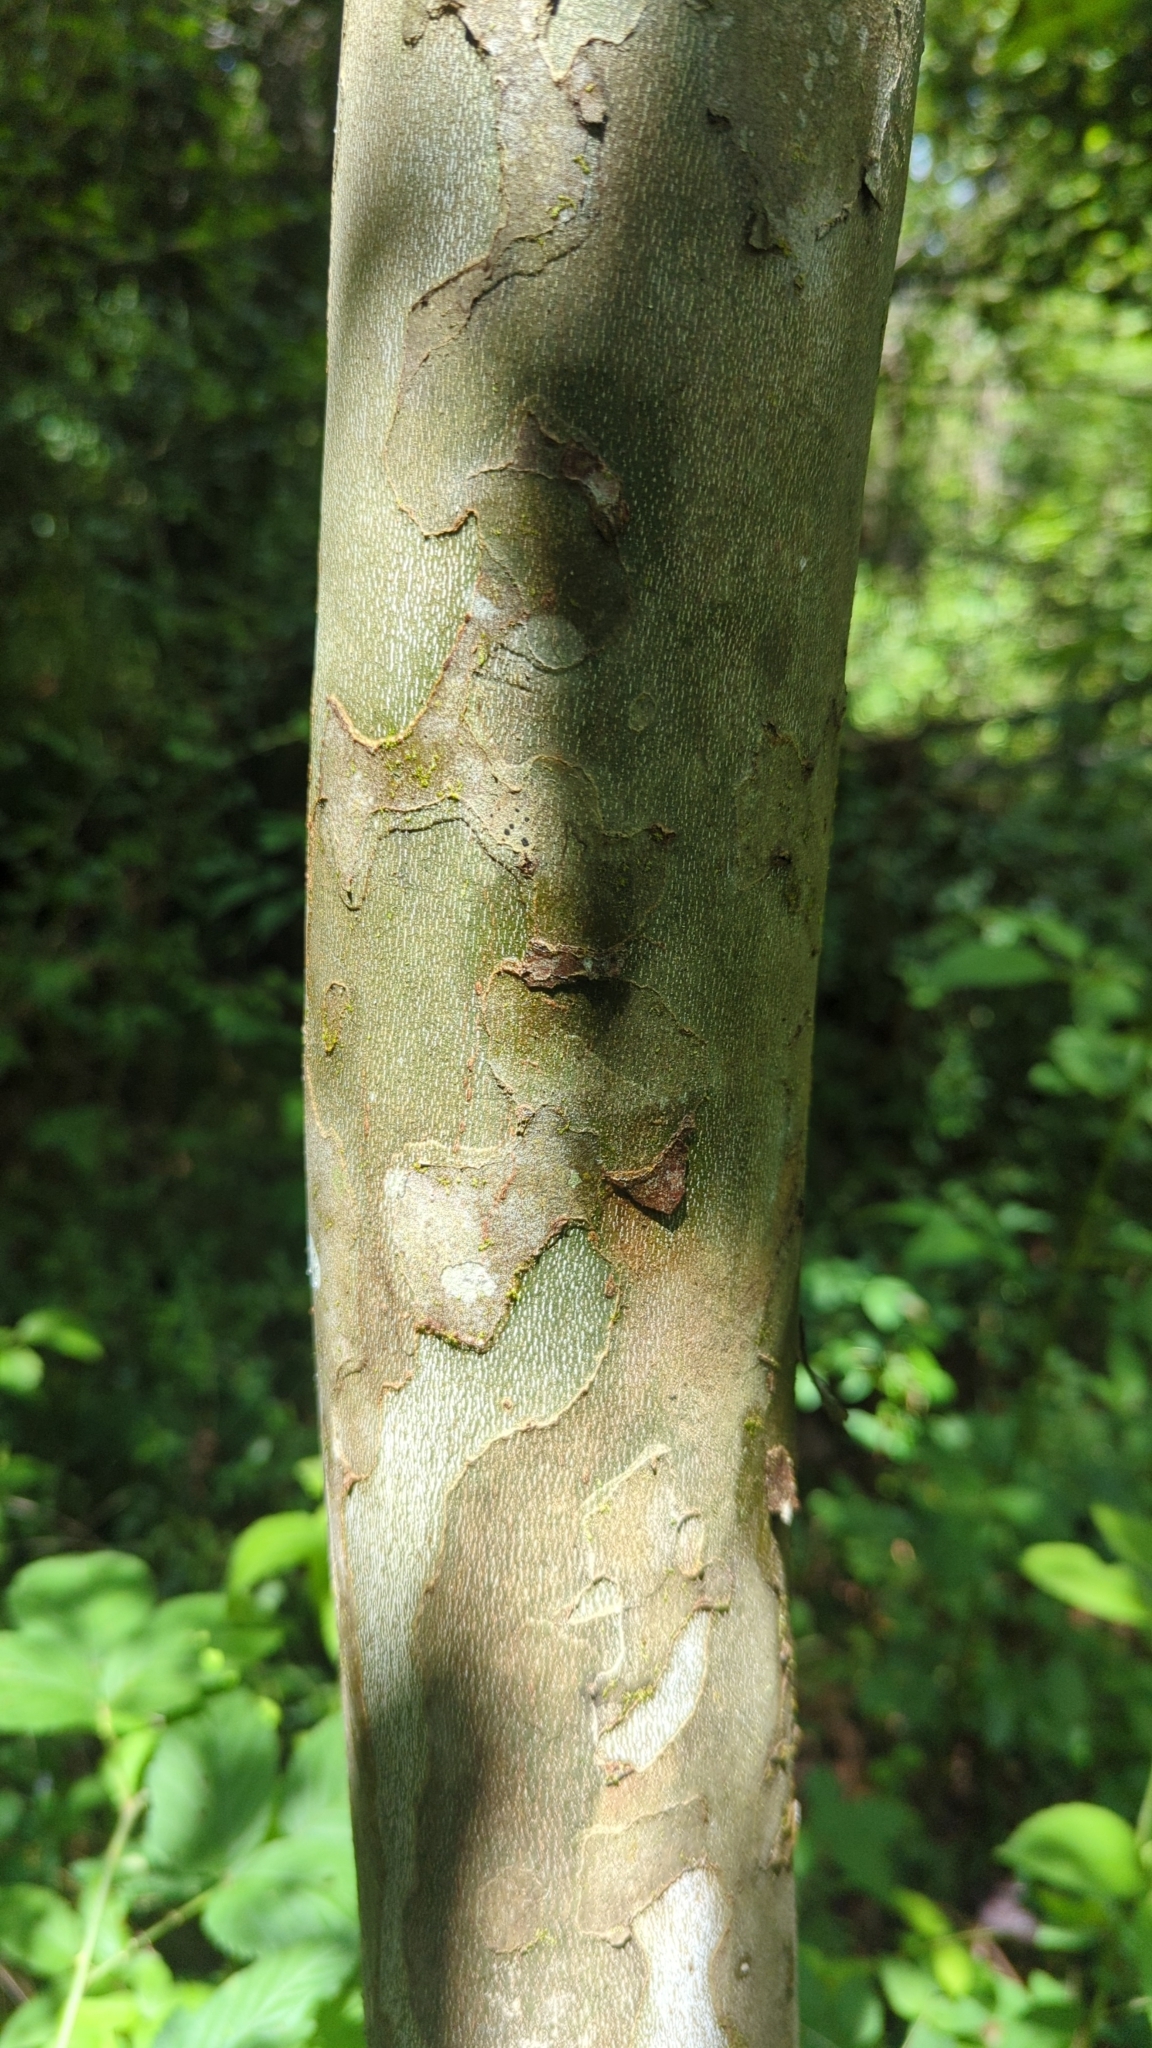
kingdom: Plantae
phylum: Tracheophyta
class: Magnoliopsida
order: Proteales
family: Platanaceae
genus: Platanus
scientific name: Platanus occidentalis
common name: American sycamore
